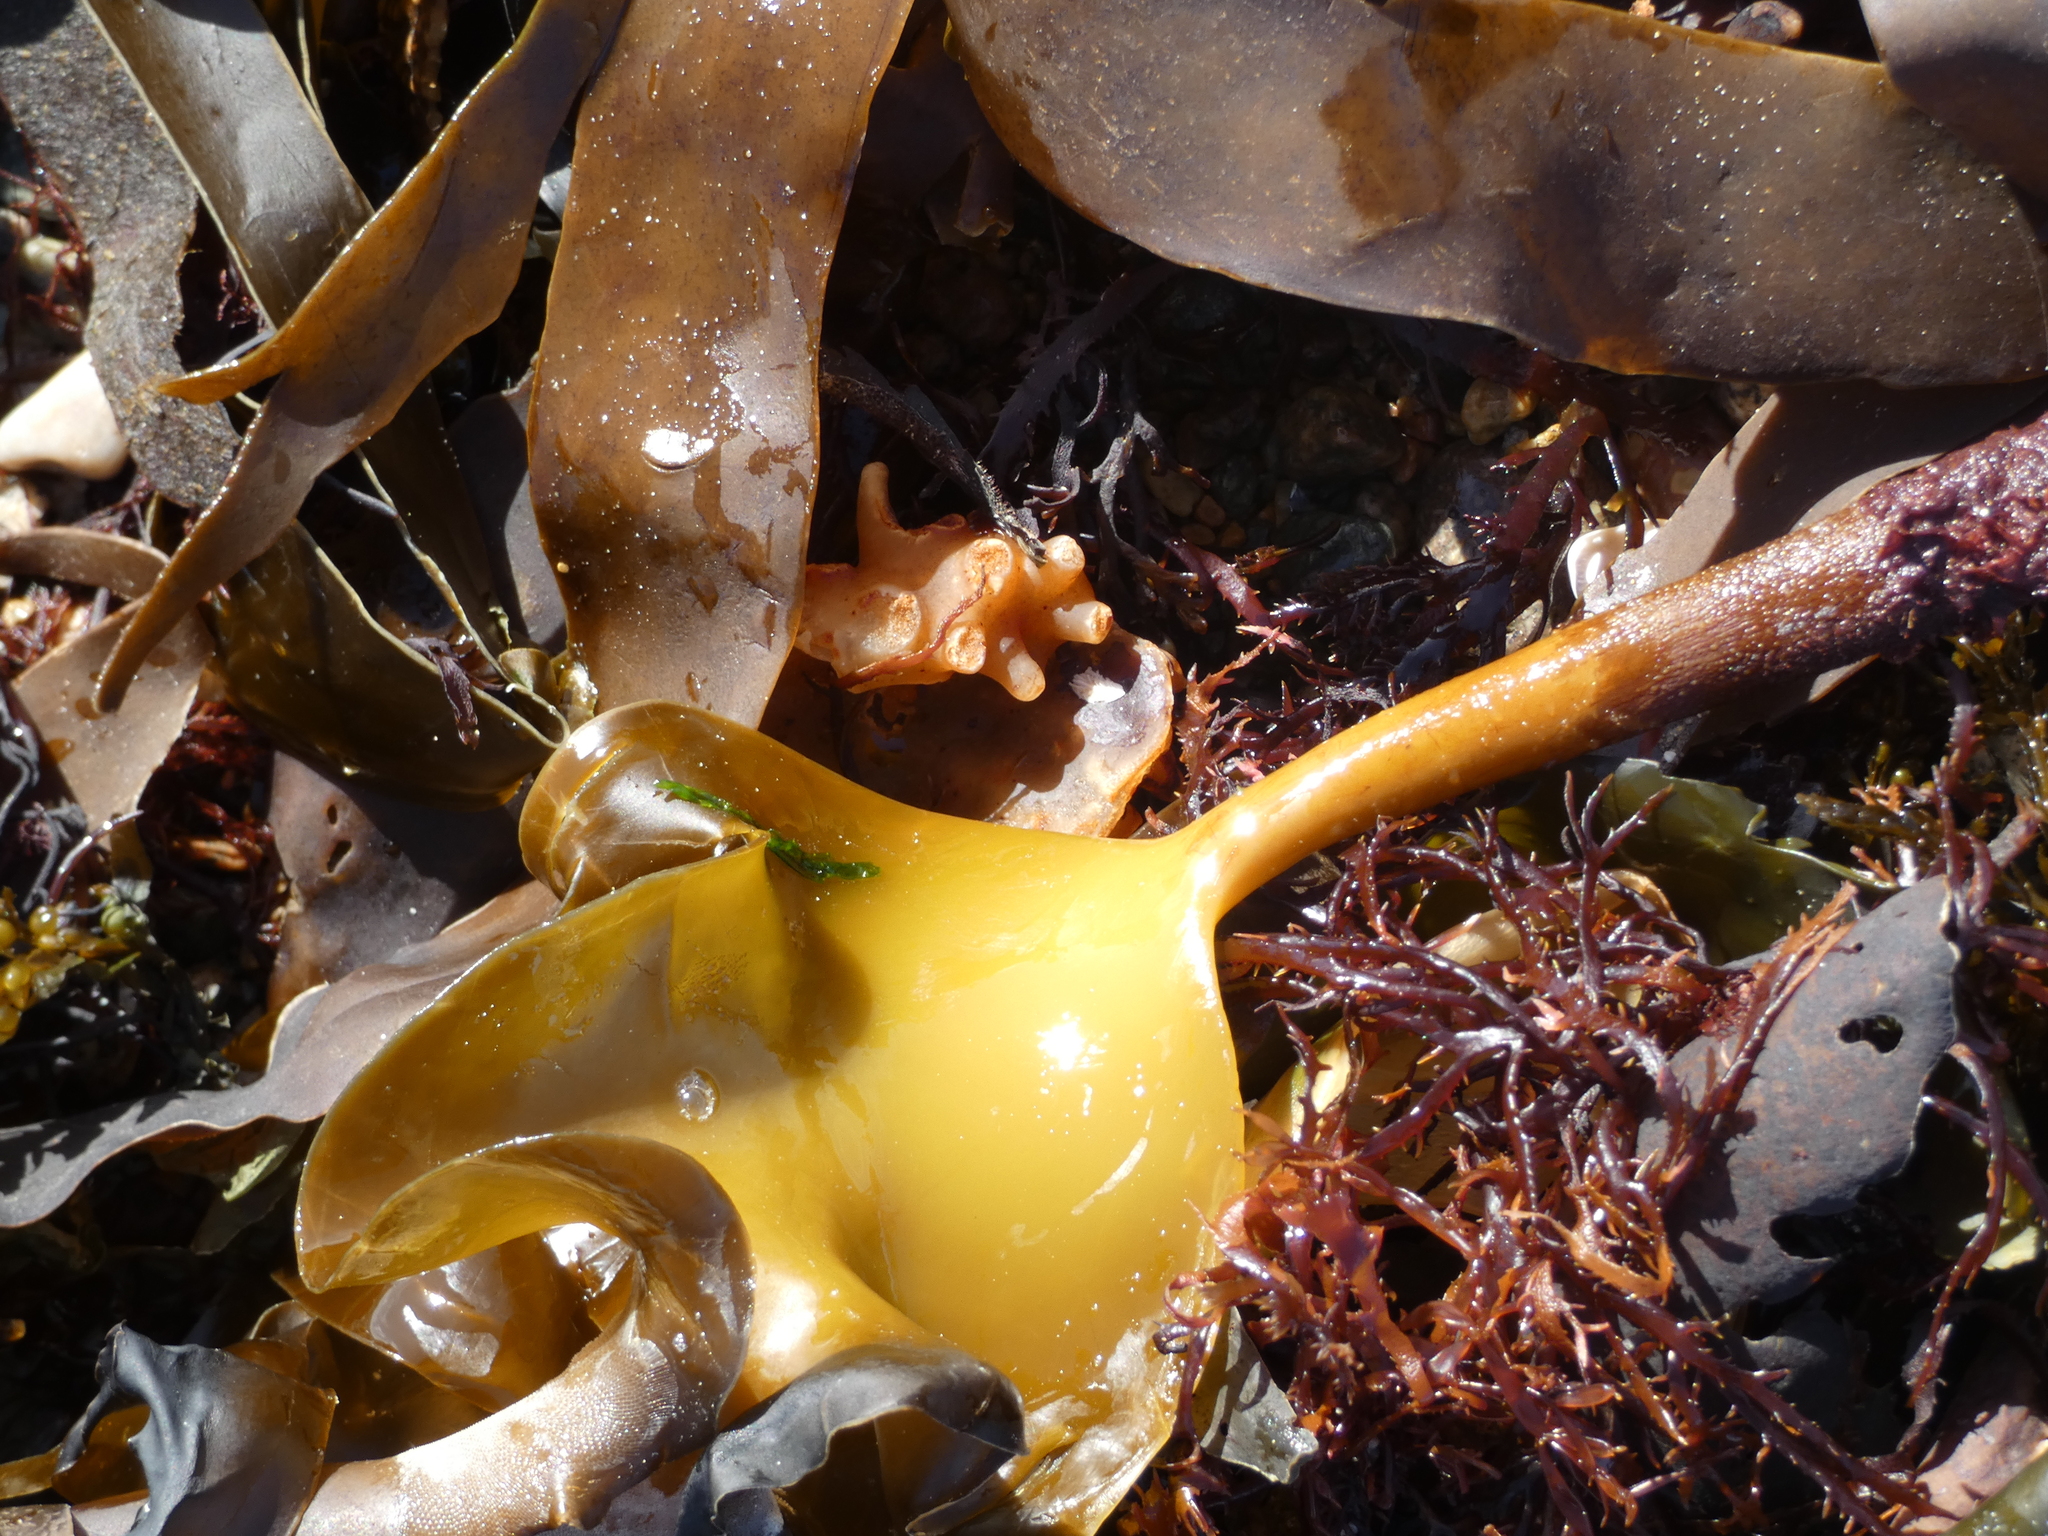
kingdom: Chromista
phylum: Ochrophyta
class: Phaeophyceae
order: Laminariales
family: Laminariaceae
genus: Laminaria
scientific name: Laminaria hyperborea
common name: Cuvie
